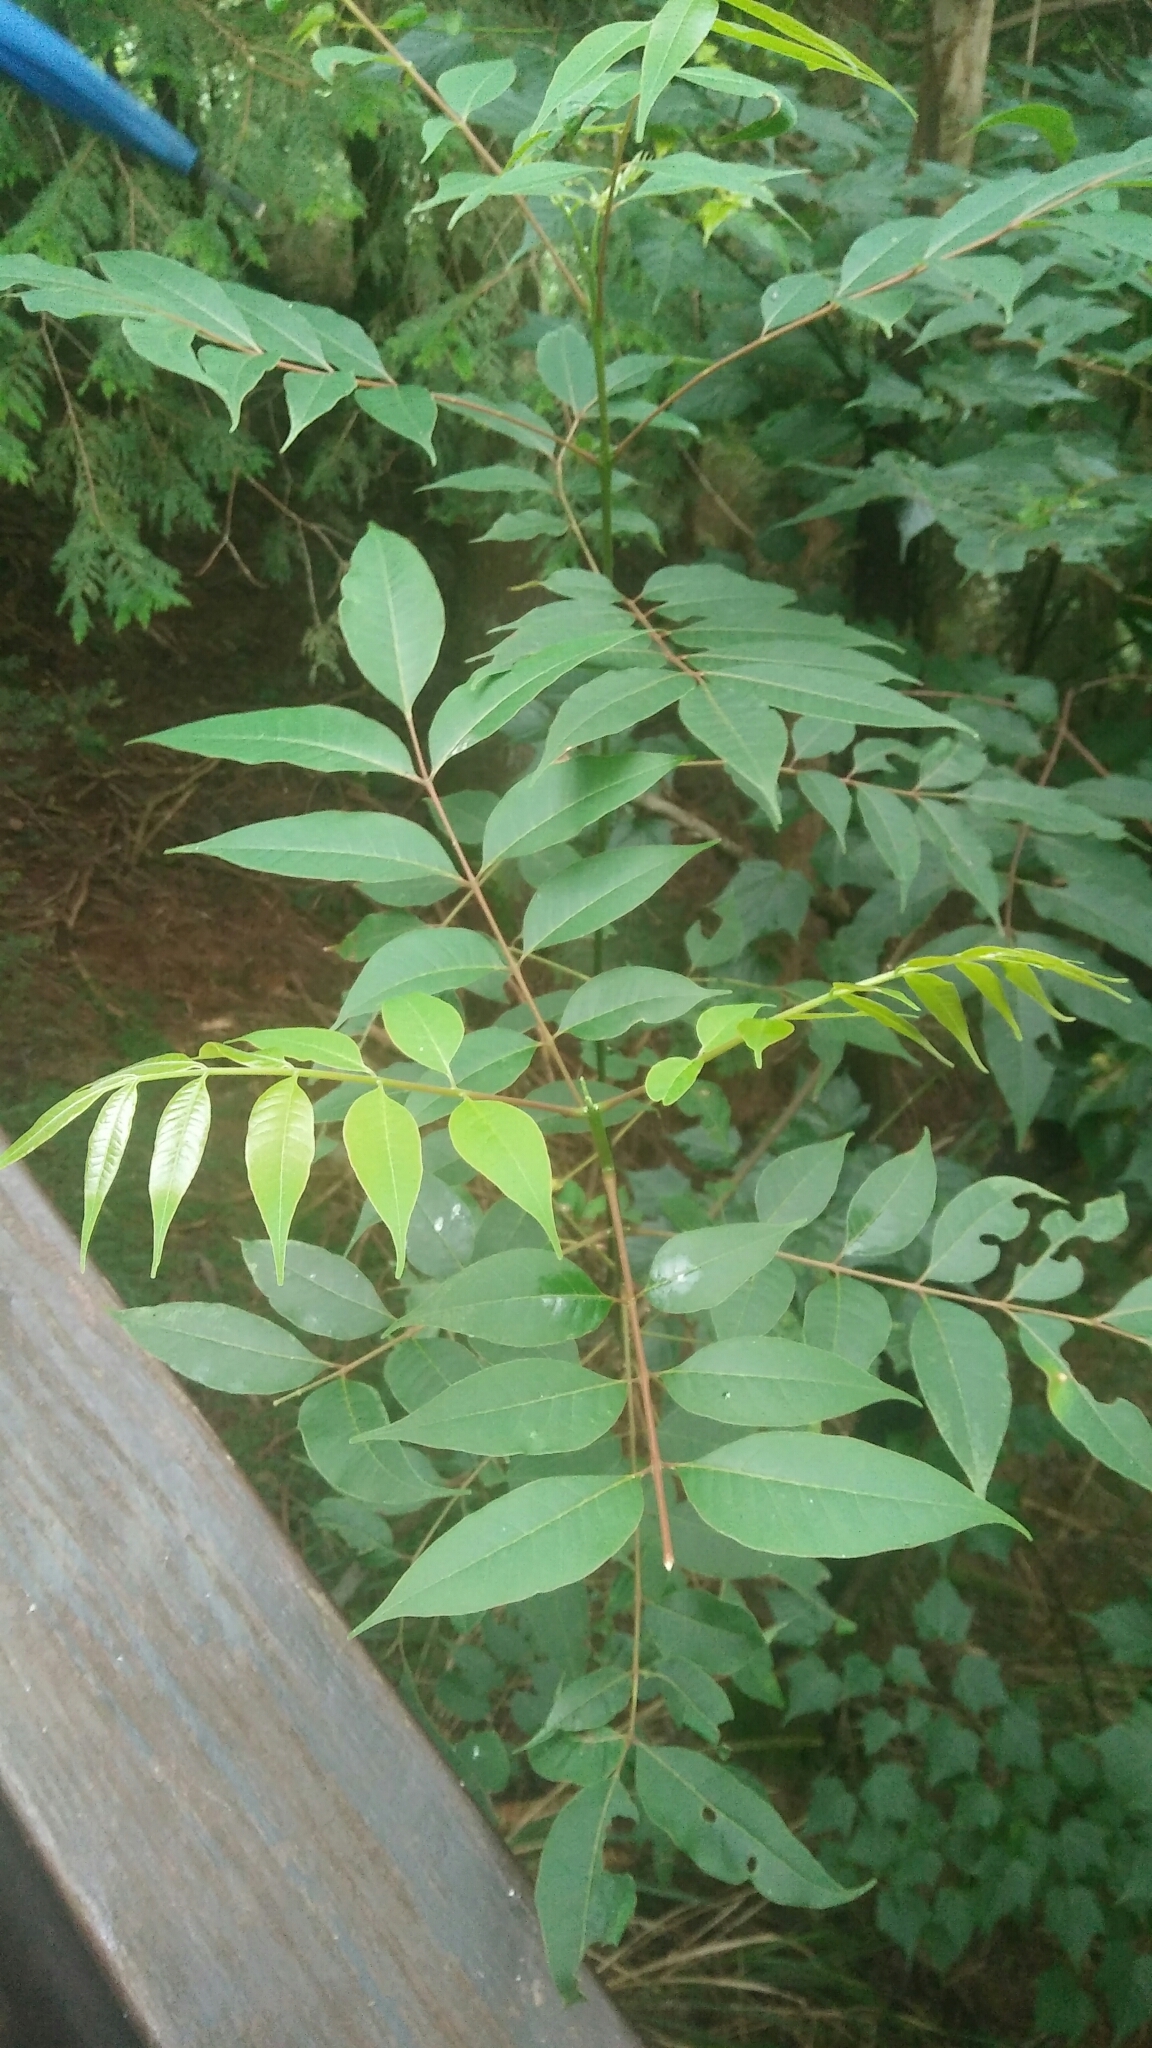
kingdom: Plantae
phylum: Tracheophyta
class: Magnoliopsida
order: Sapindales
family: Rutaceae
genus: Tetradium
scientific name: Tetradium glabrifolium
